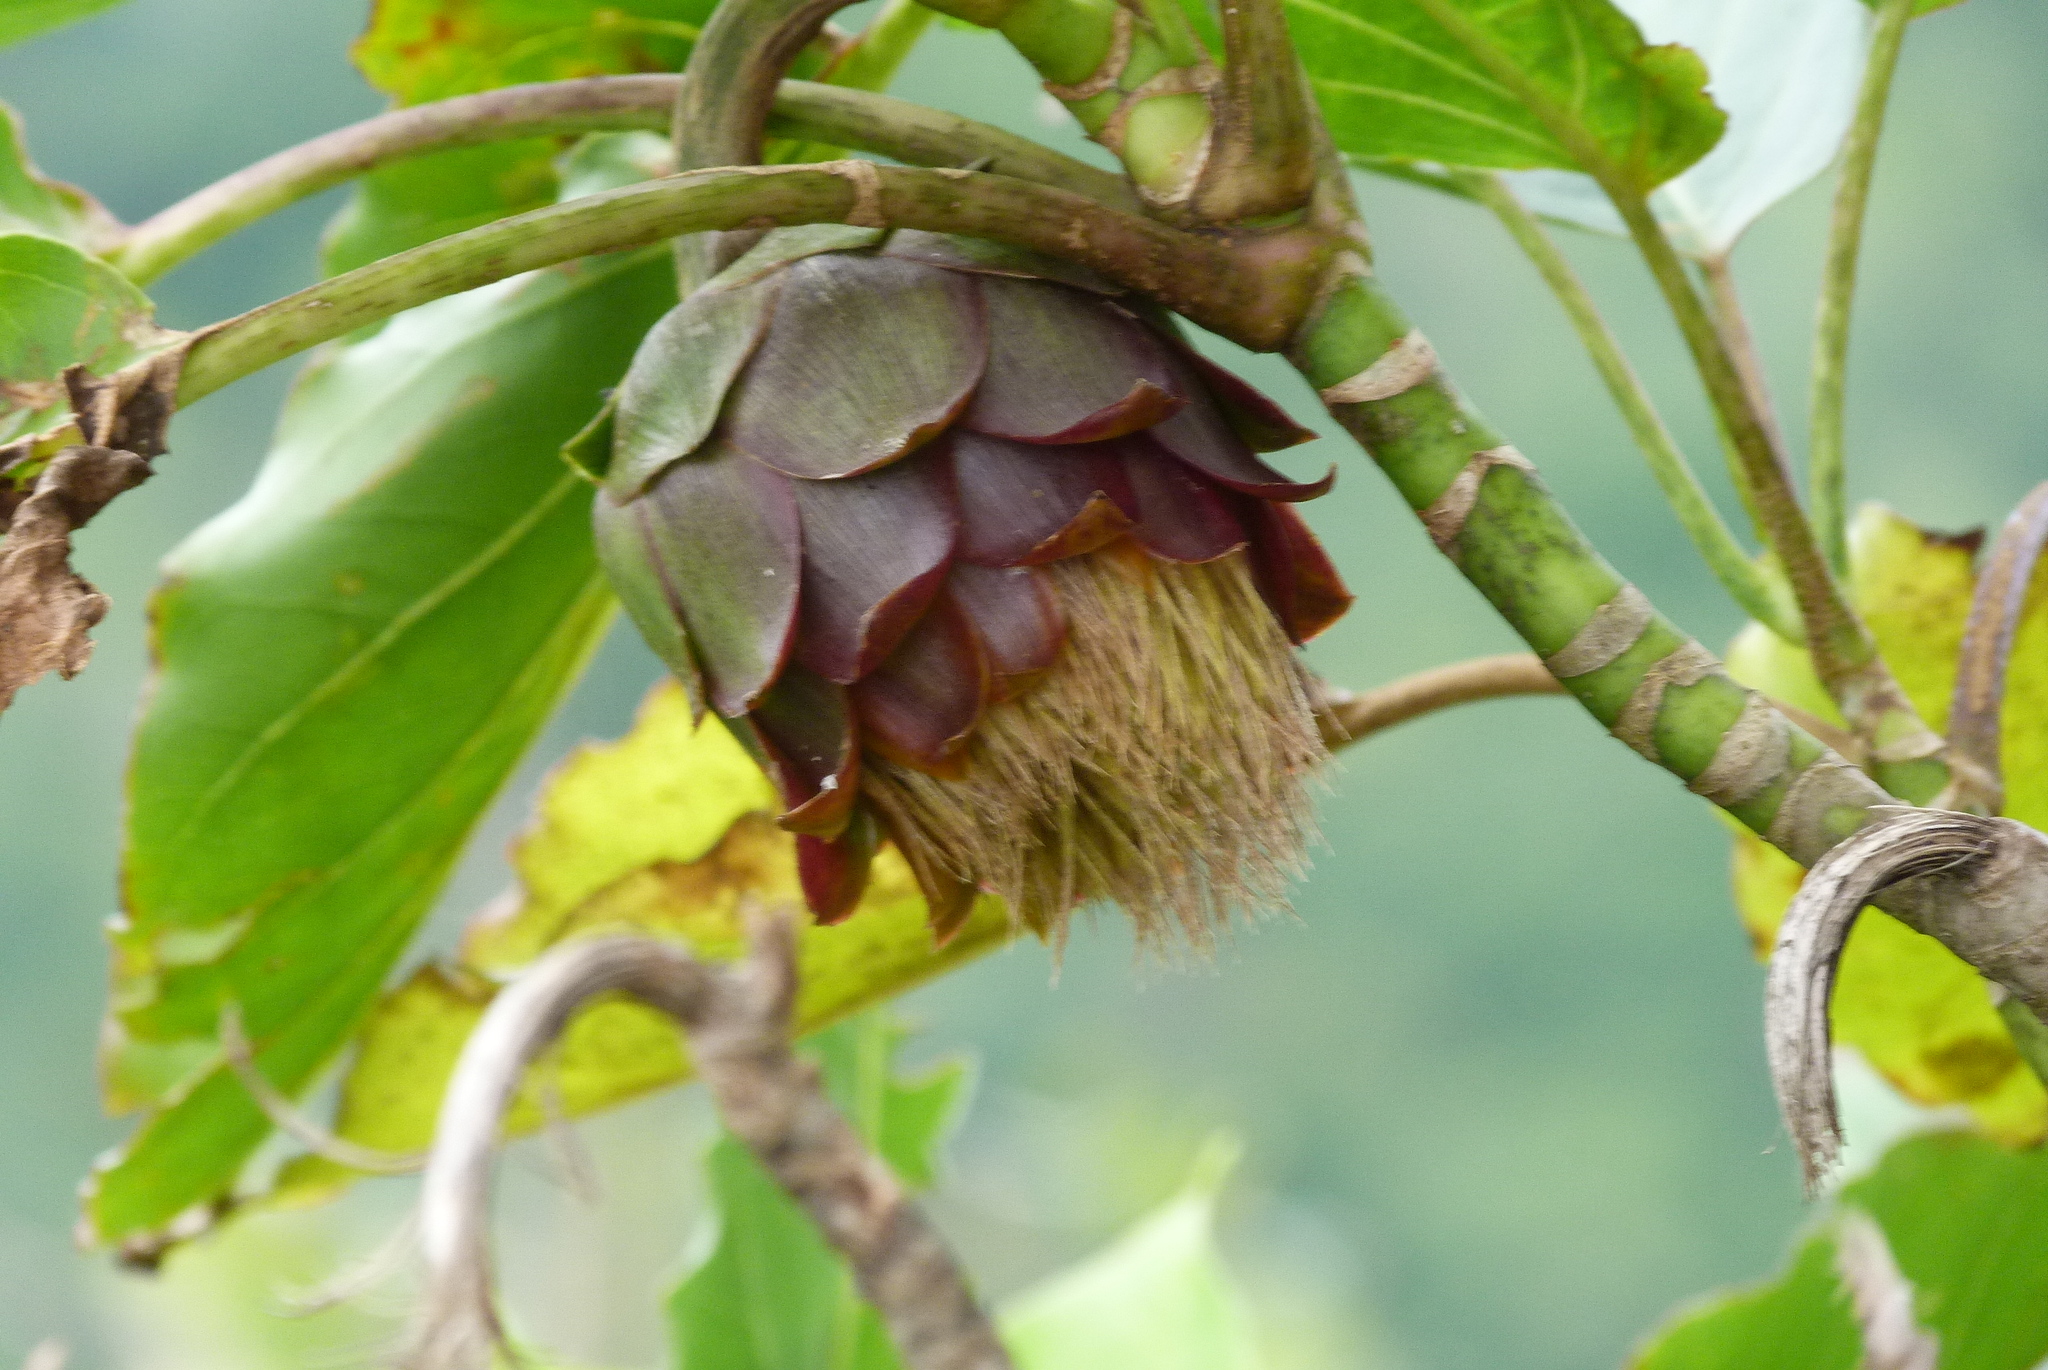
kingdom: Plantae
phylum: Tracheophyta
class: Magnoliopsida
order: Asterales
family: Asteraceae
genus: Fitchia
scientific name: Fitchia speciosa
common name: Burr daisytree
